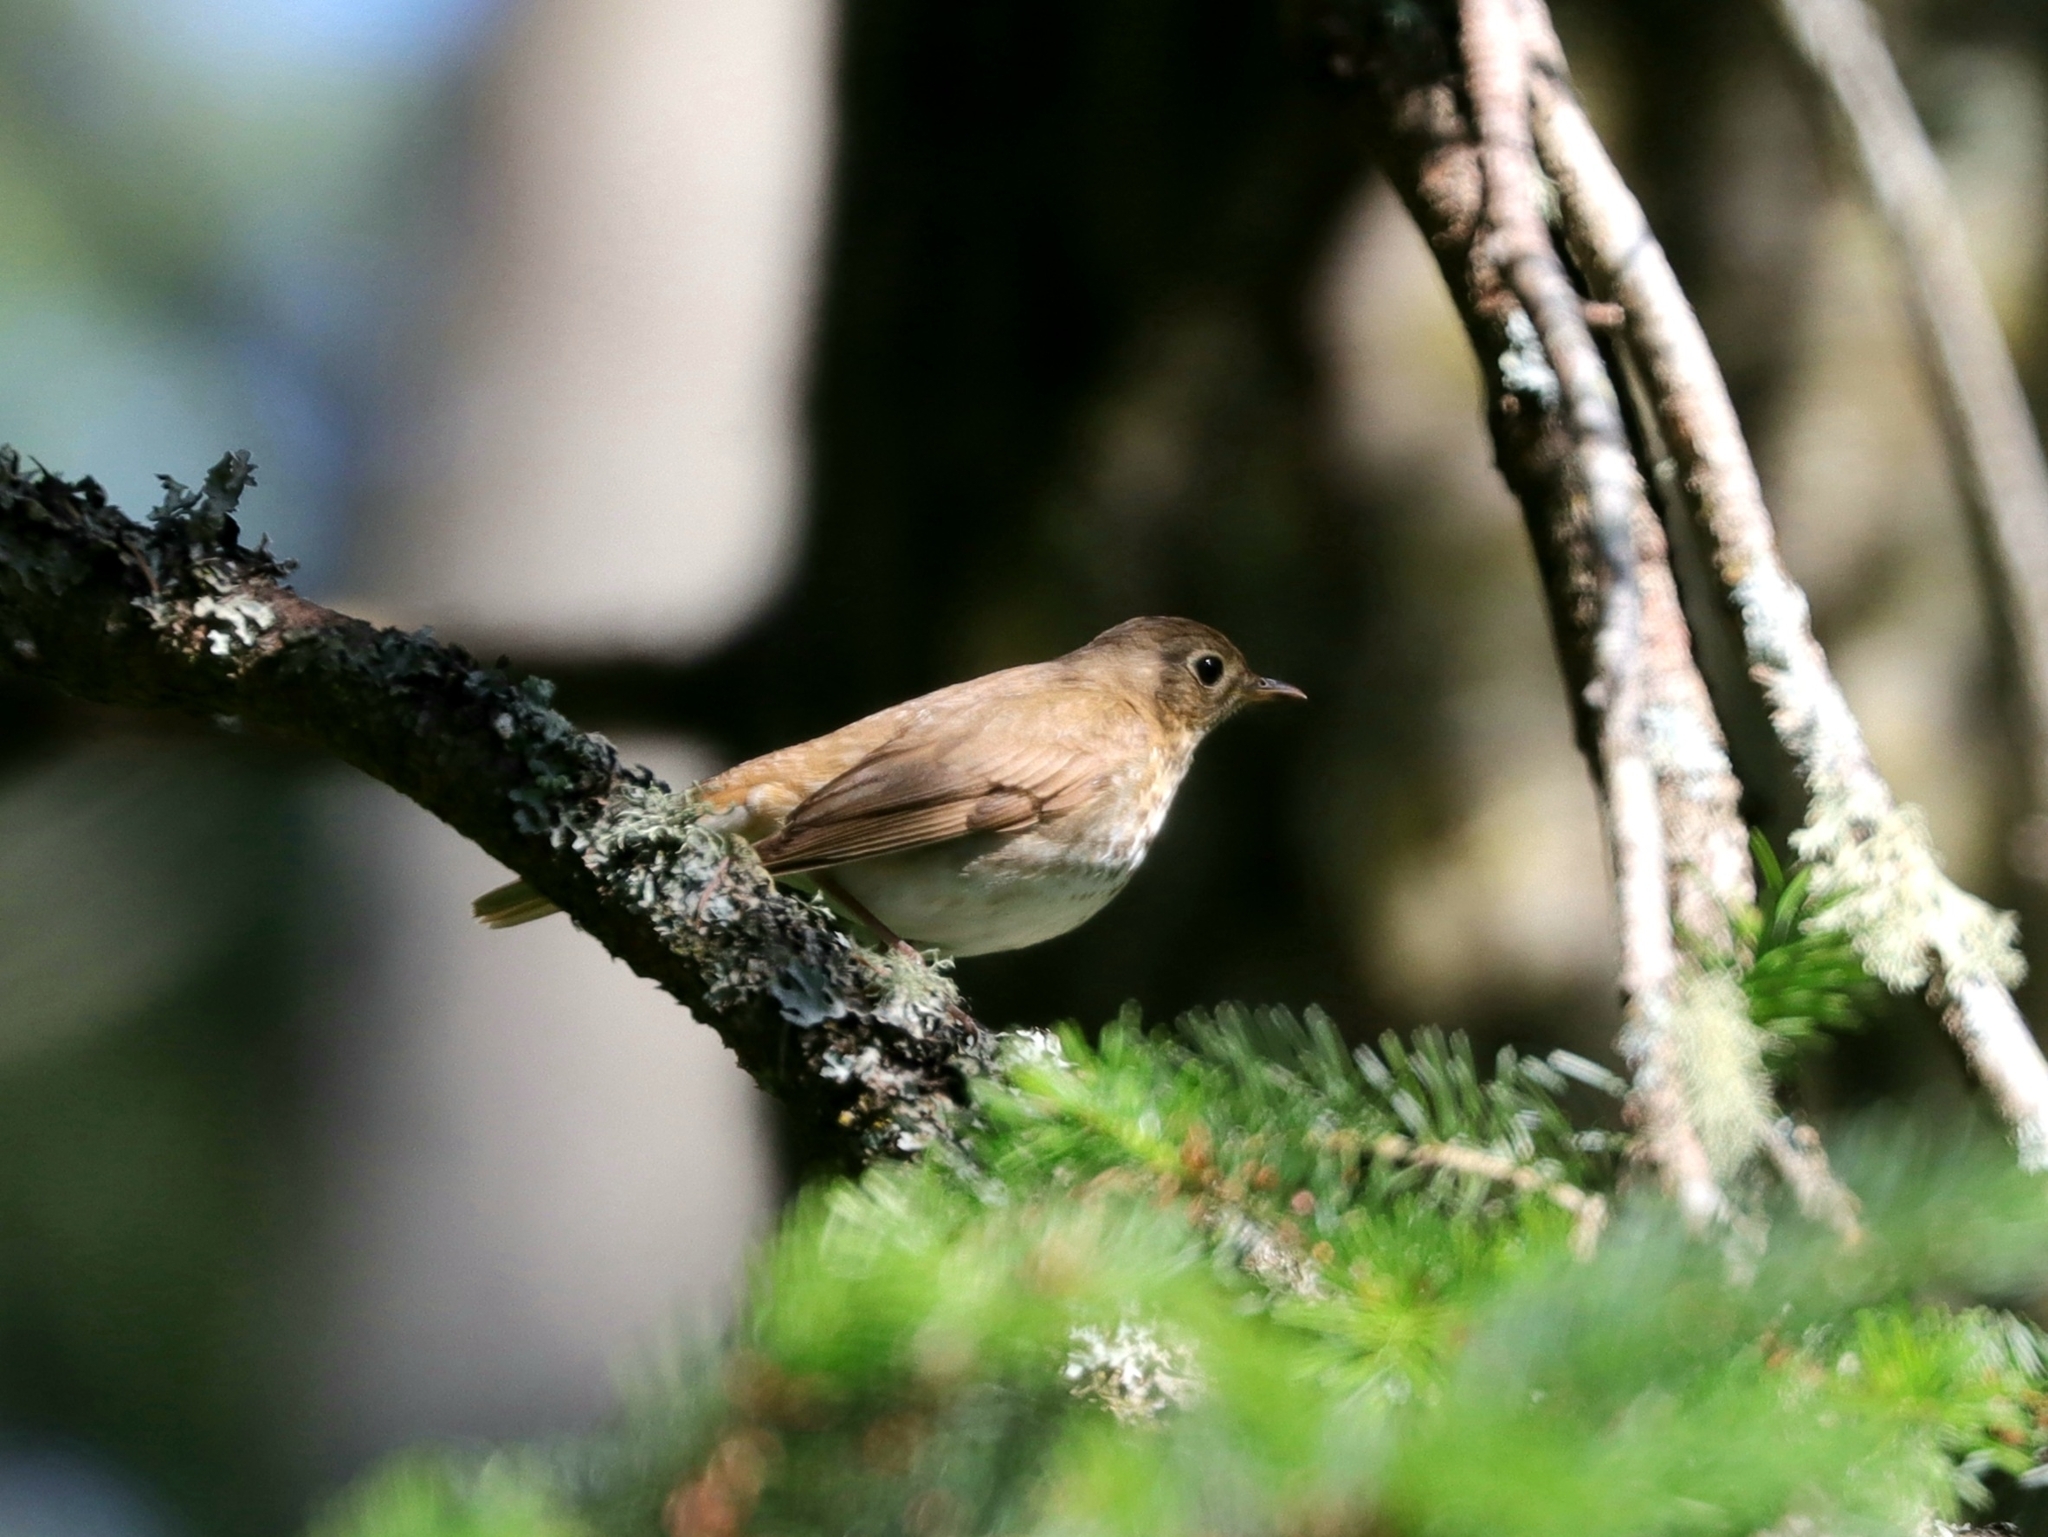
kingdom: Animalia
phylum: Chordata
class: Aves
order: Passeriformes
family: Turdidae
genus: Catharus
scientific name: Catharus ustulatus
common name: Swainson's thrush
